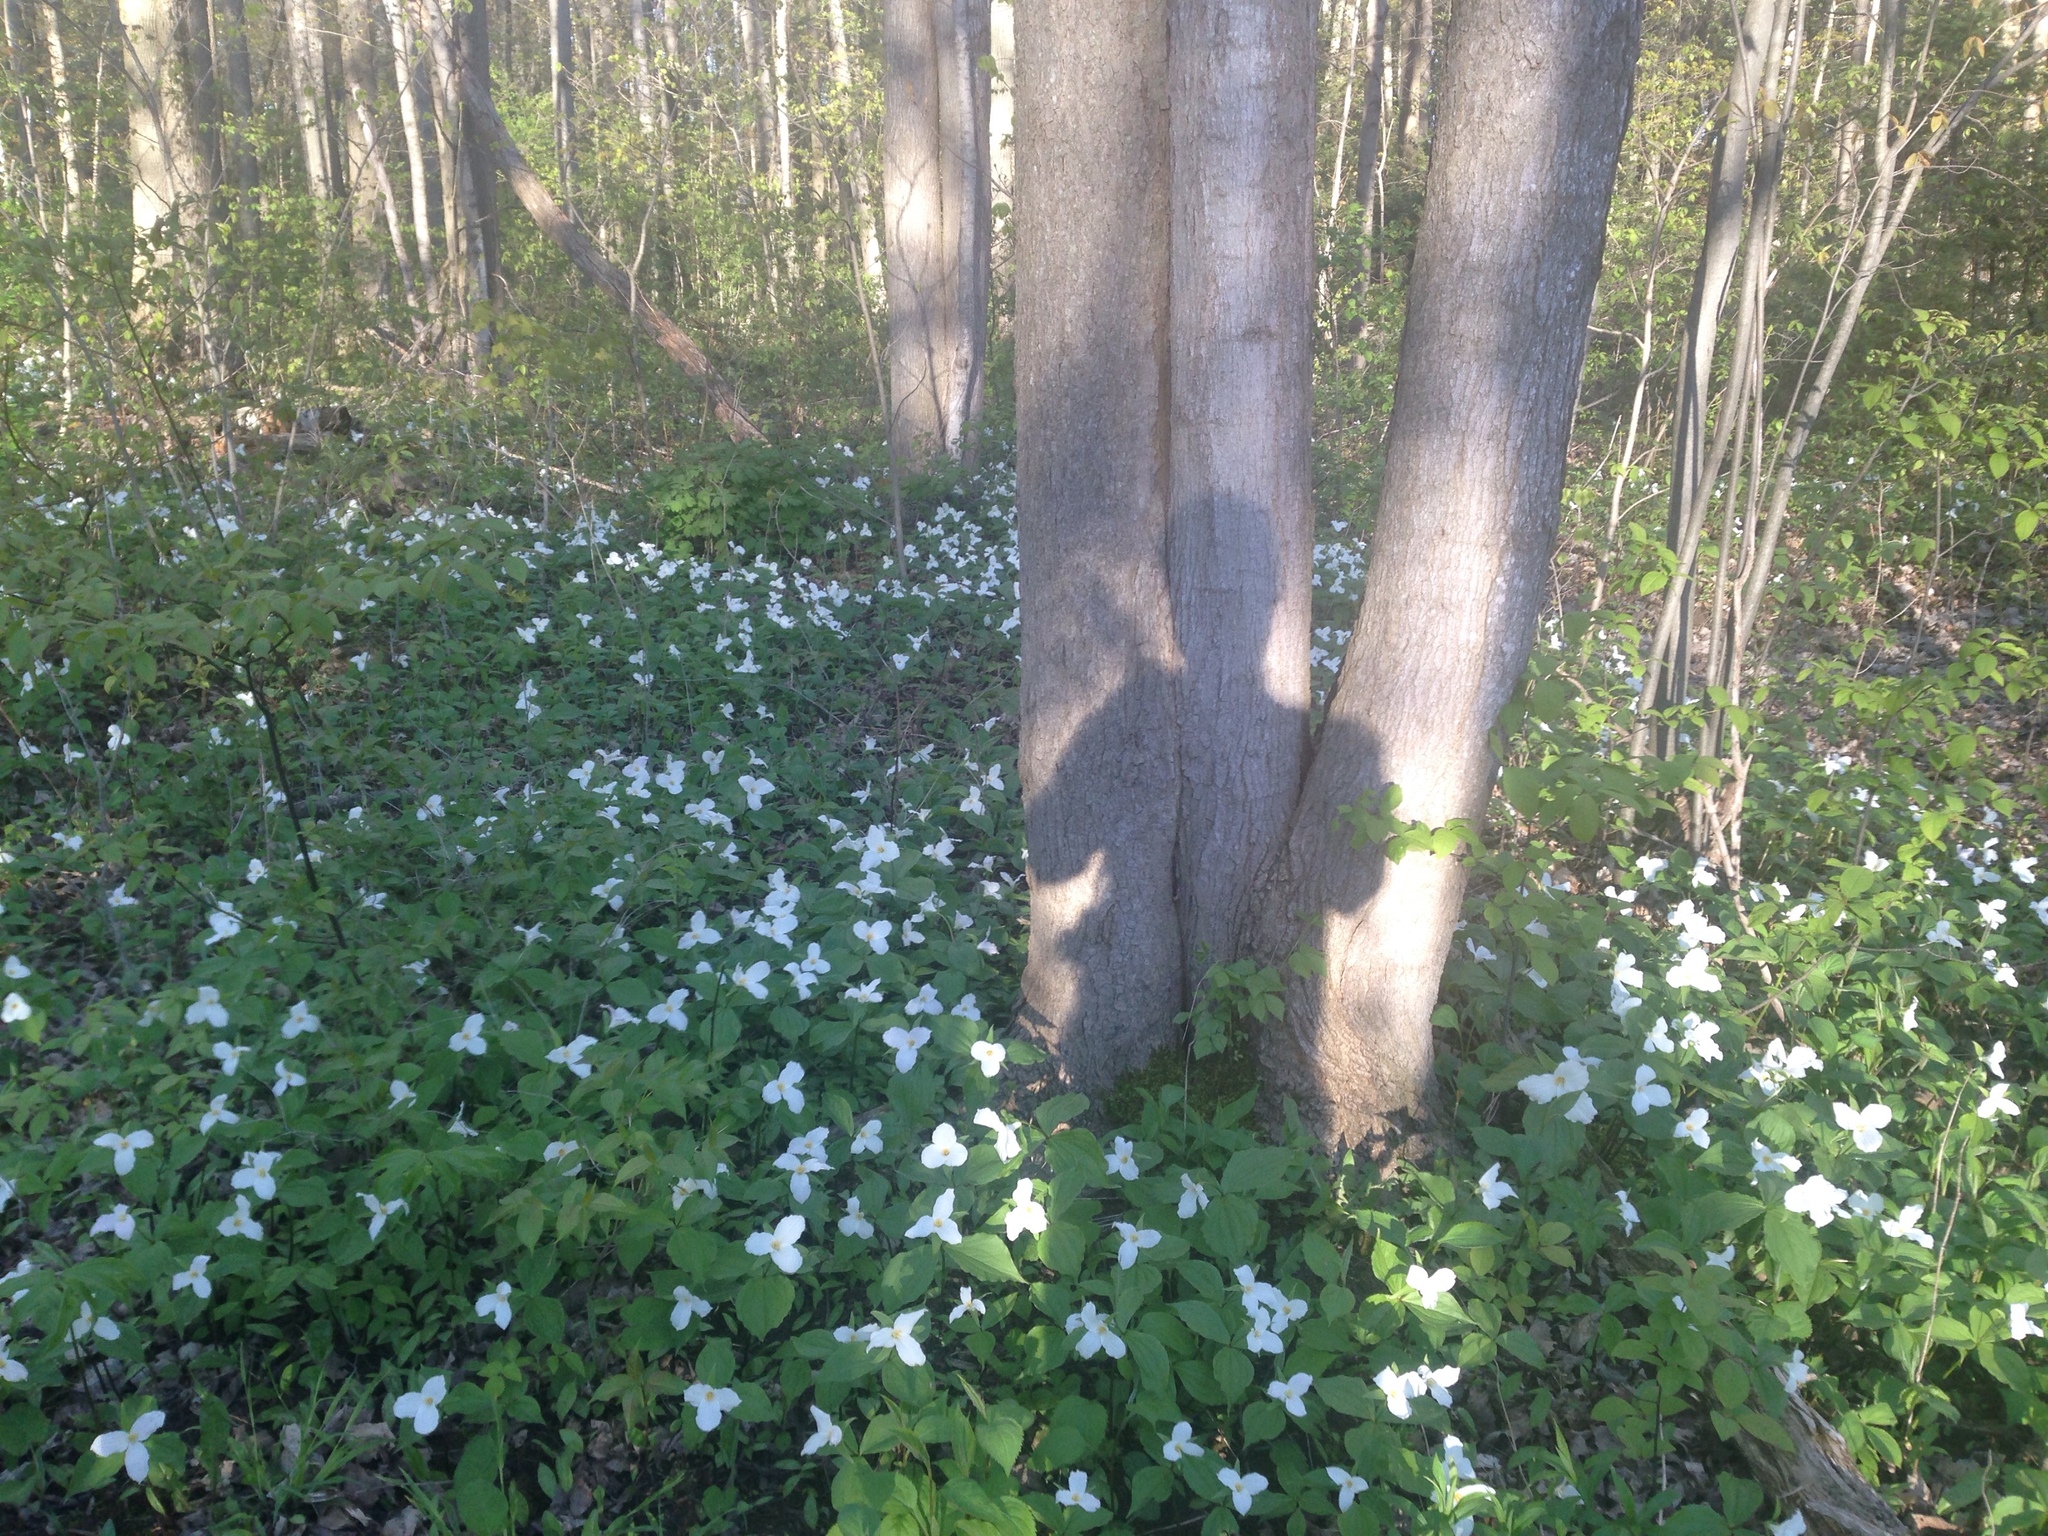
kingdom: Plantae
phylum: Tracheophyta
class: Liliopsida
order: Liliales
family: Melanthiaceae
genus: Trillium
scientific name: Trillium grandiflorum
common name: Great white trillium
